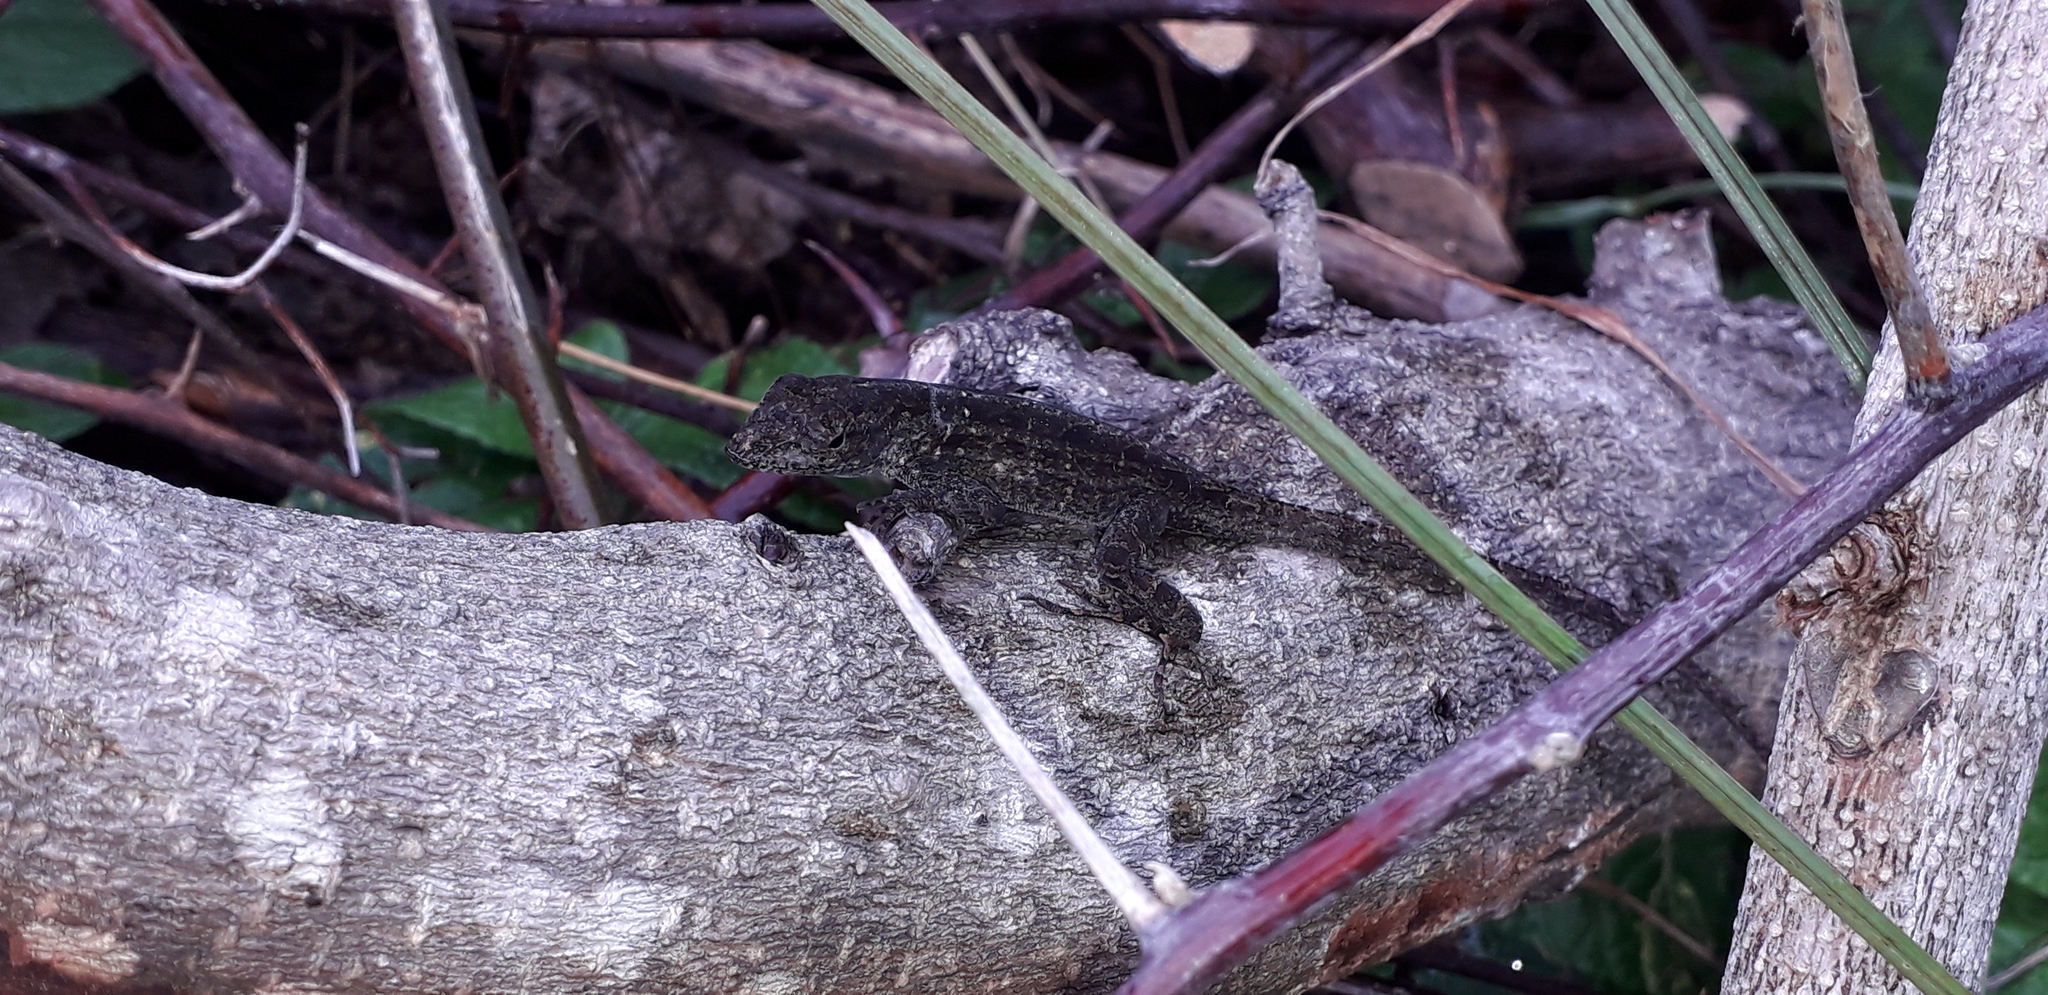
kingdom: Animalia
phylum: Chordata
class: Squamata
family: Dactyloidae
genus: Anolis
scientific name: Anolis sagrei
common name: Brown anole
